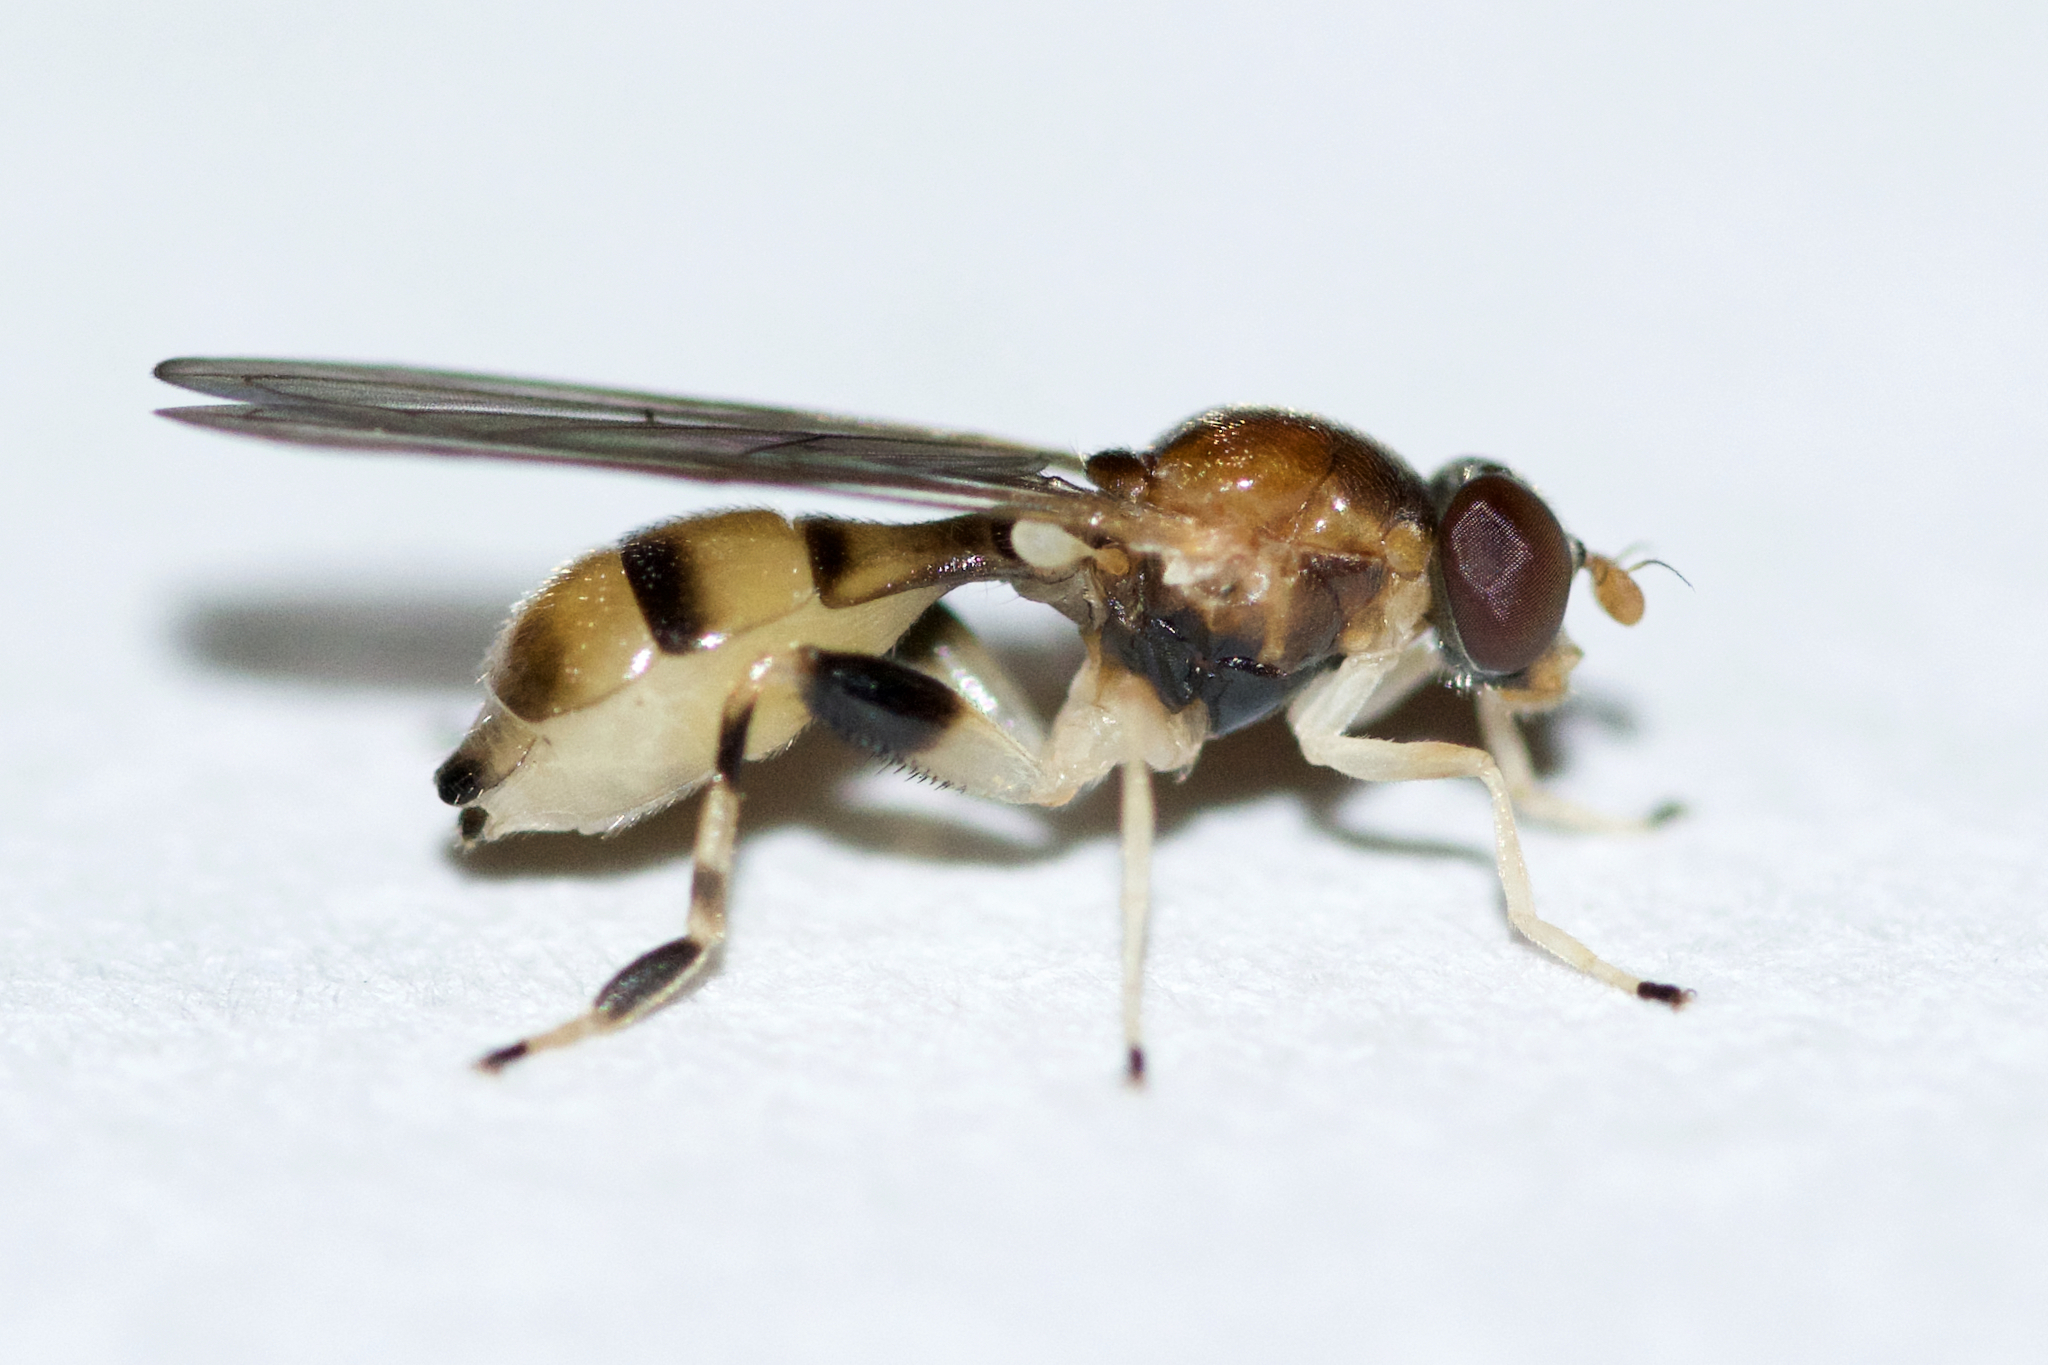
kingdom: Animalia
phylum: Arthropoda
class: Insecta
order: Diptera
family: Syrphidae
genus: Sphegina
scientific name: Sphegina lobata
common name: Yellow-lobed pufftail
